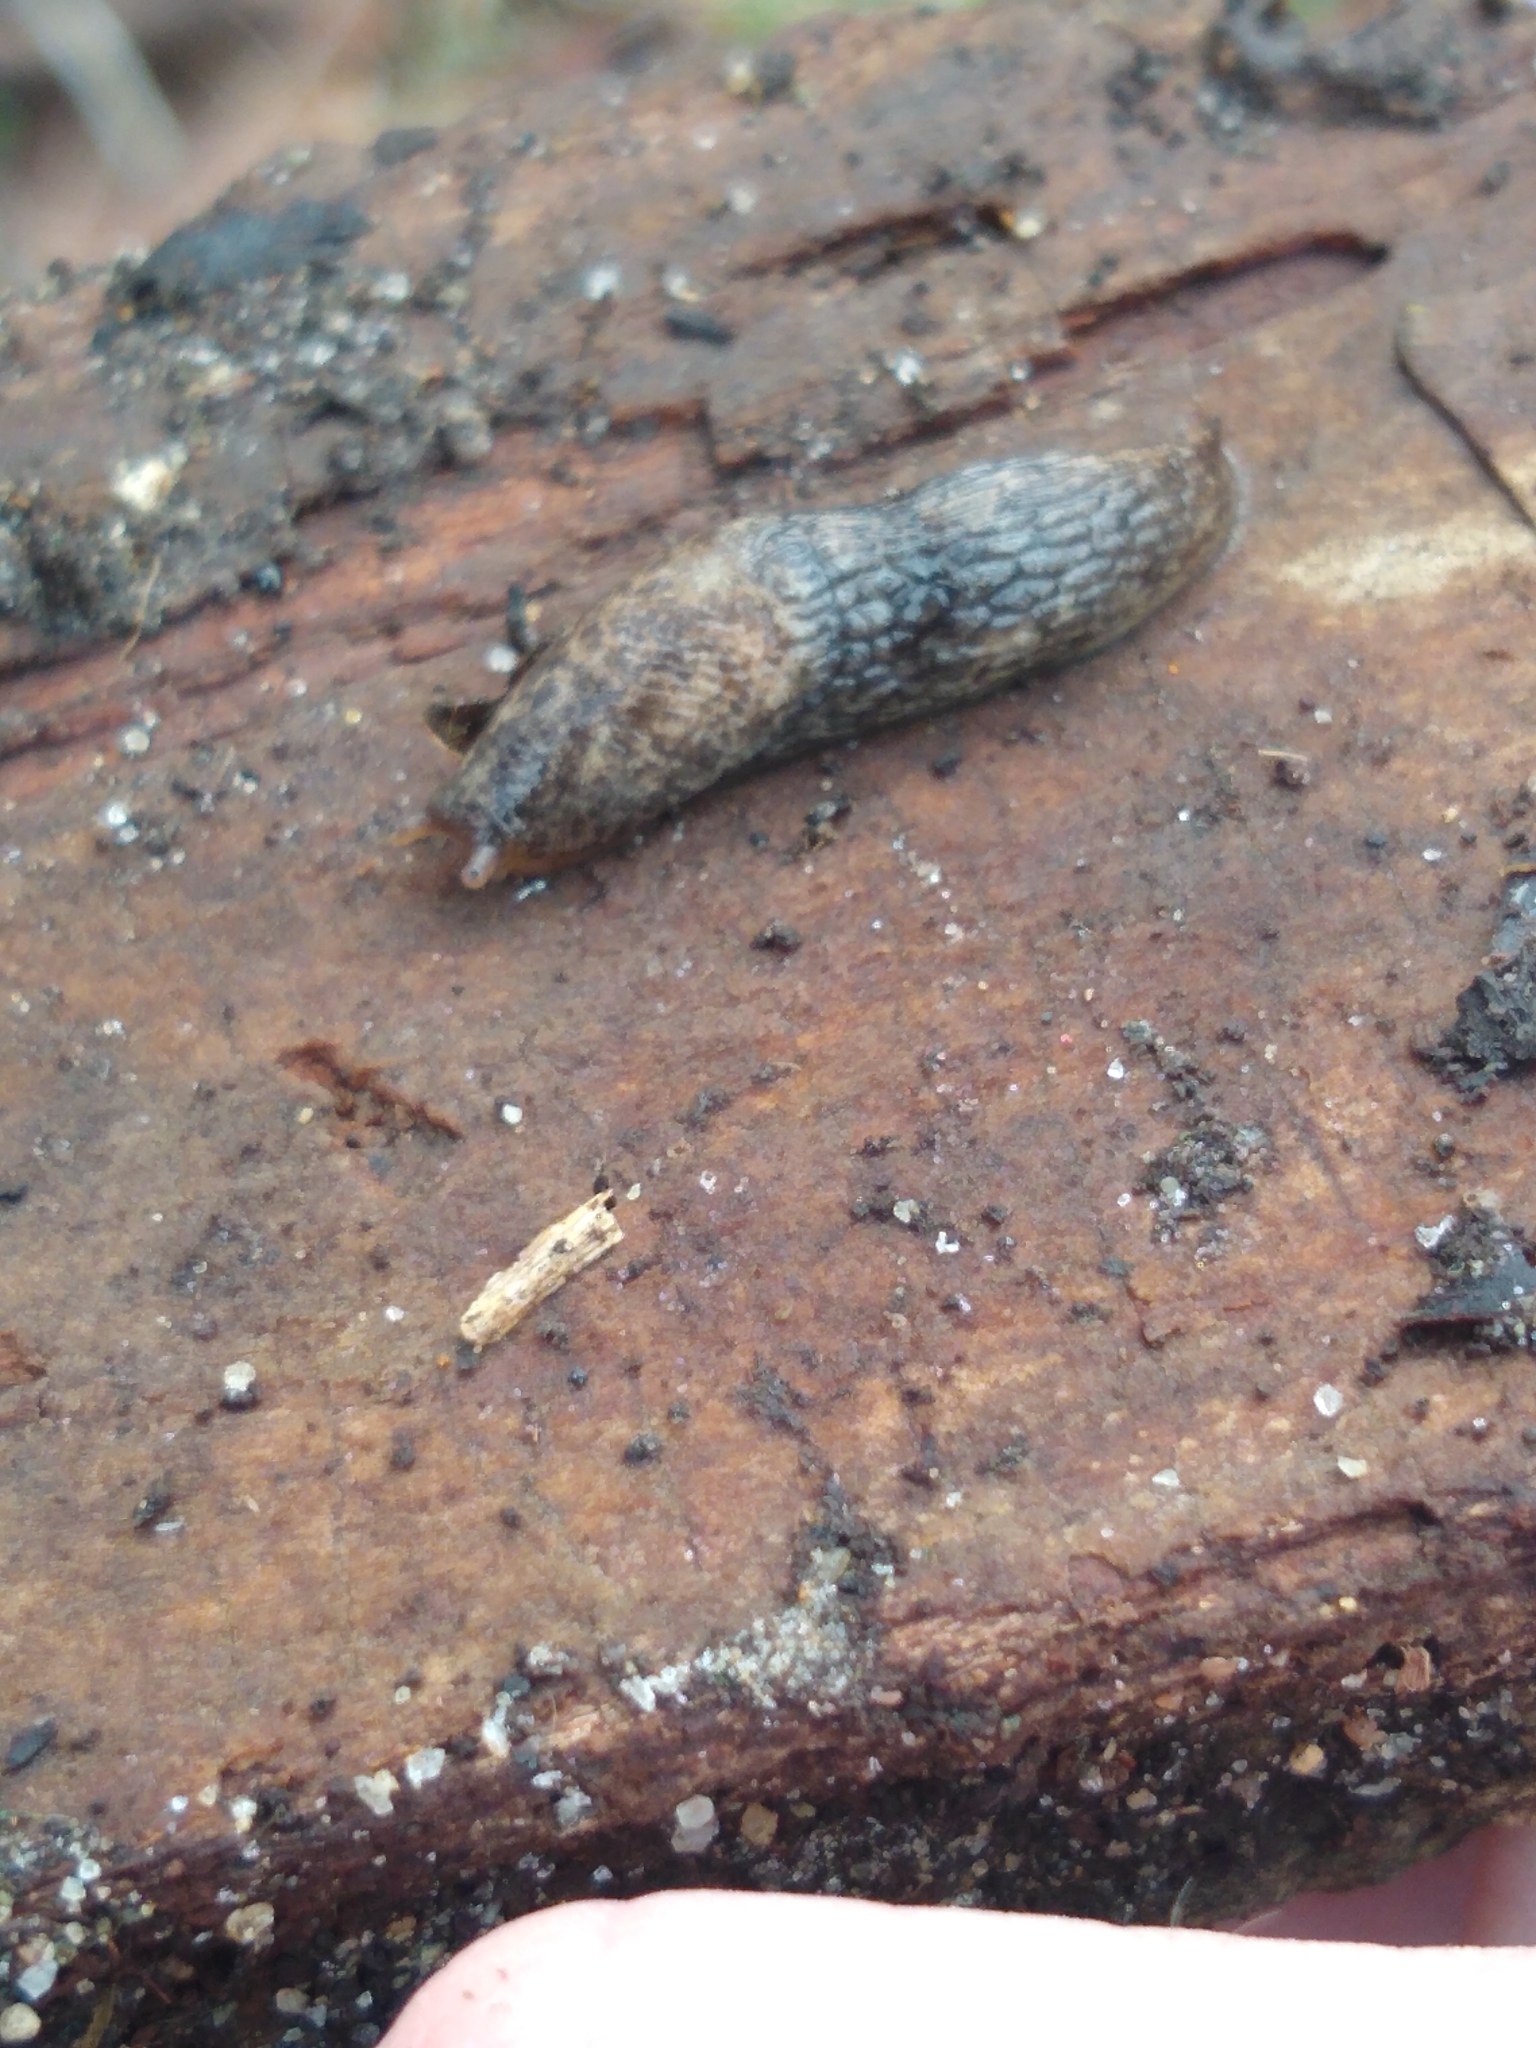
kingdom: Animalia
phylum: Mollusca
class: Gastropoda
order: Stylommatophora
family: Agriolimacidae
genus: Deroceras
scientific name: Deroceras reticulatum
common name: Gray field slug
